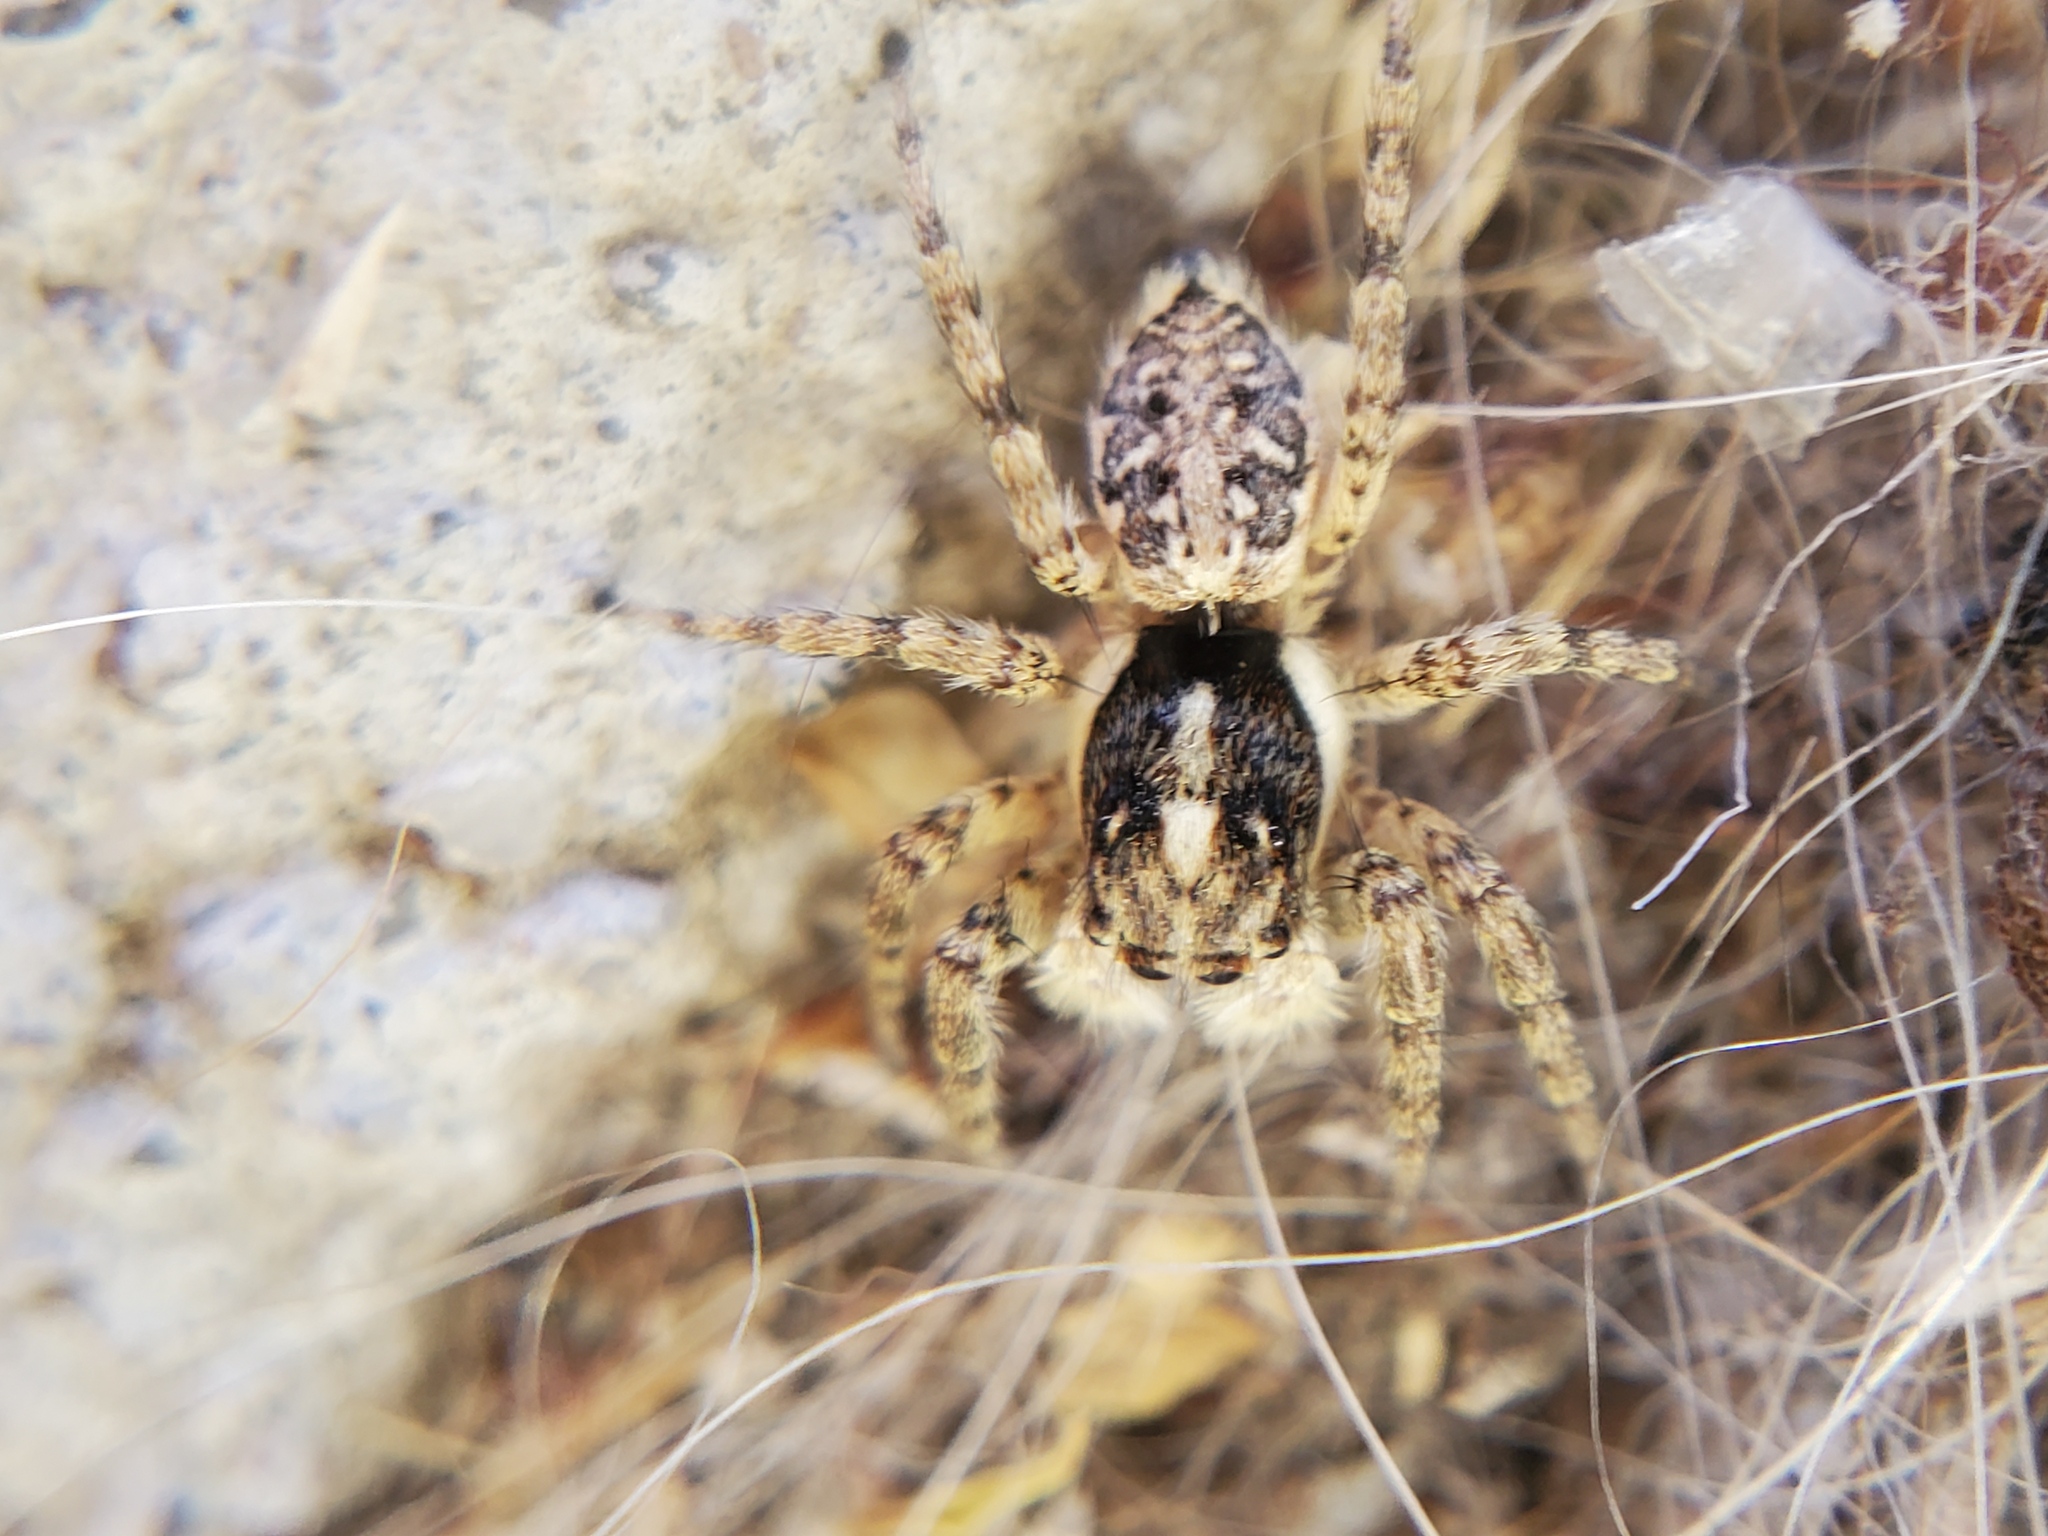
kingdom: Animalia
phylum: Arthropoda
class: Arachnida
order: Araneae
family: Salticidae
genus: Menemerus
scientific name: Menemerus semilimbatus
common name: Jumping spider
